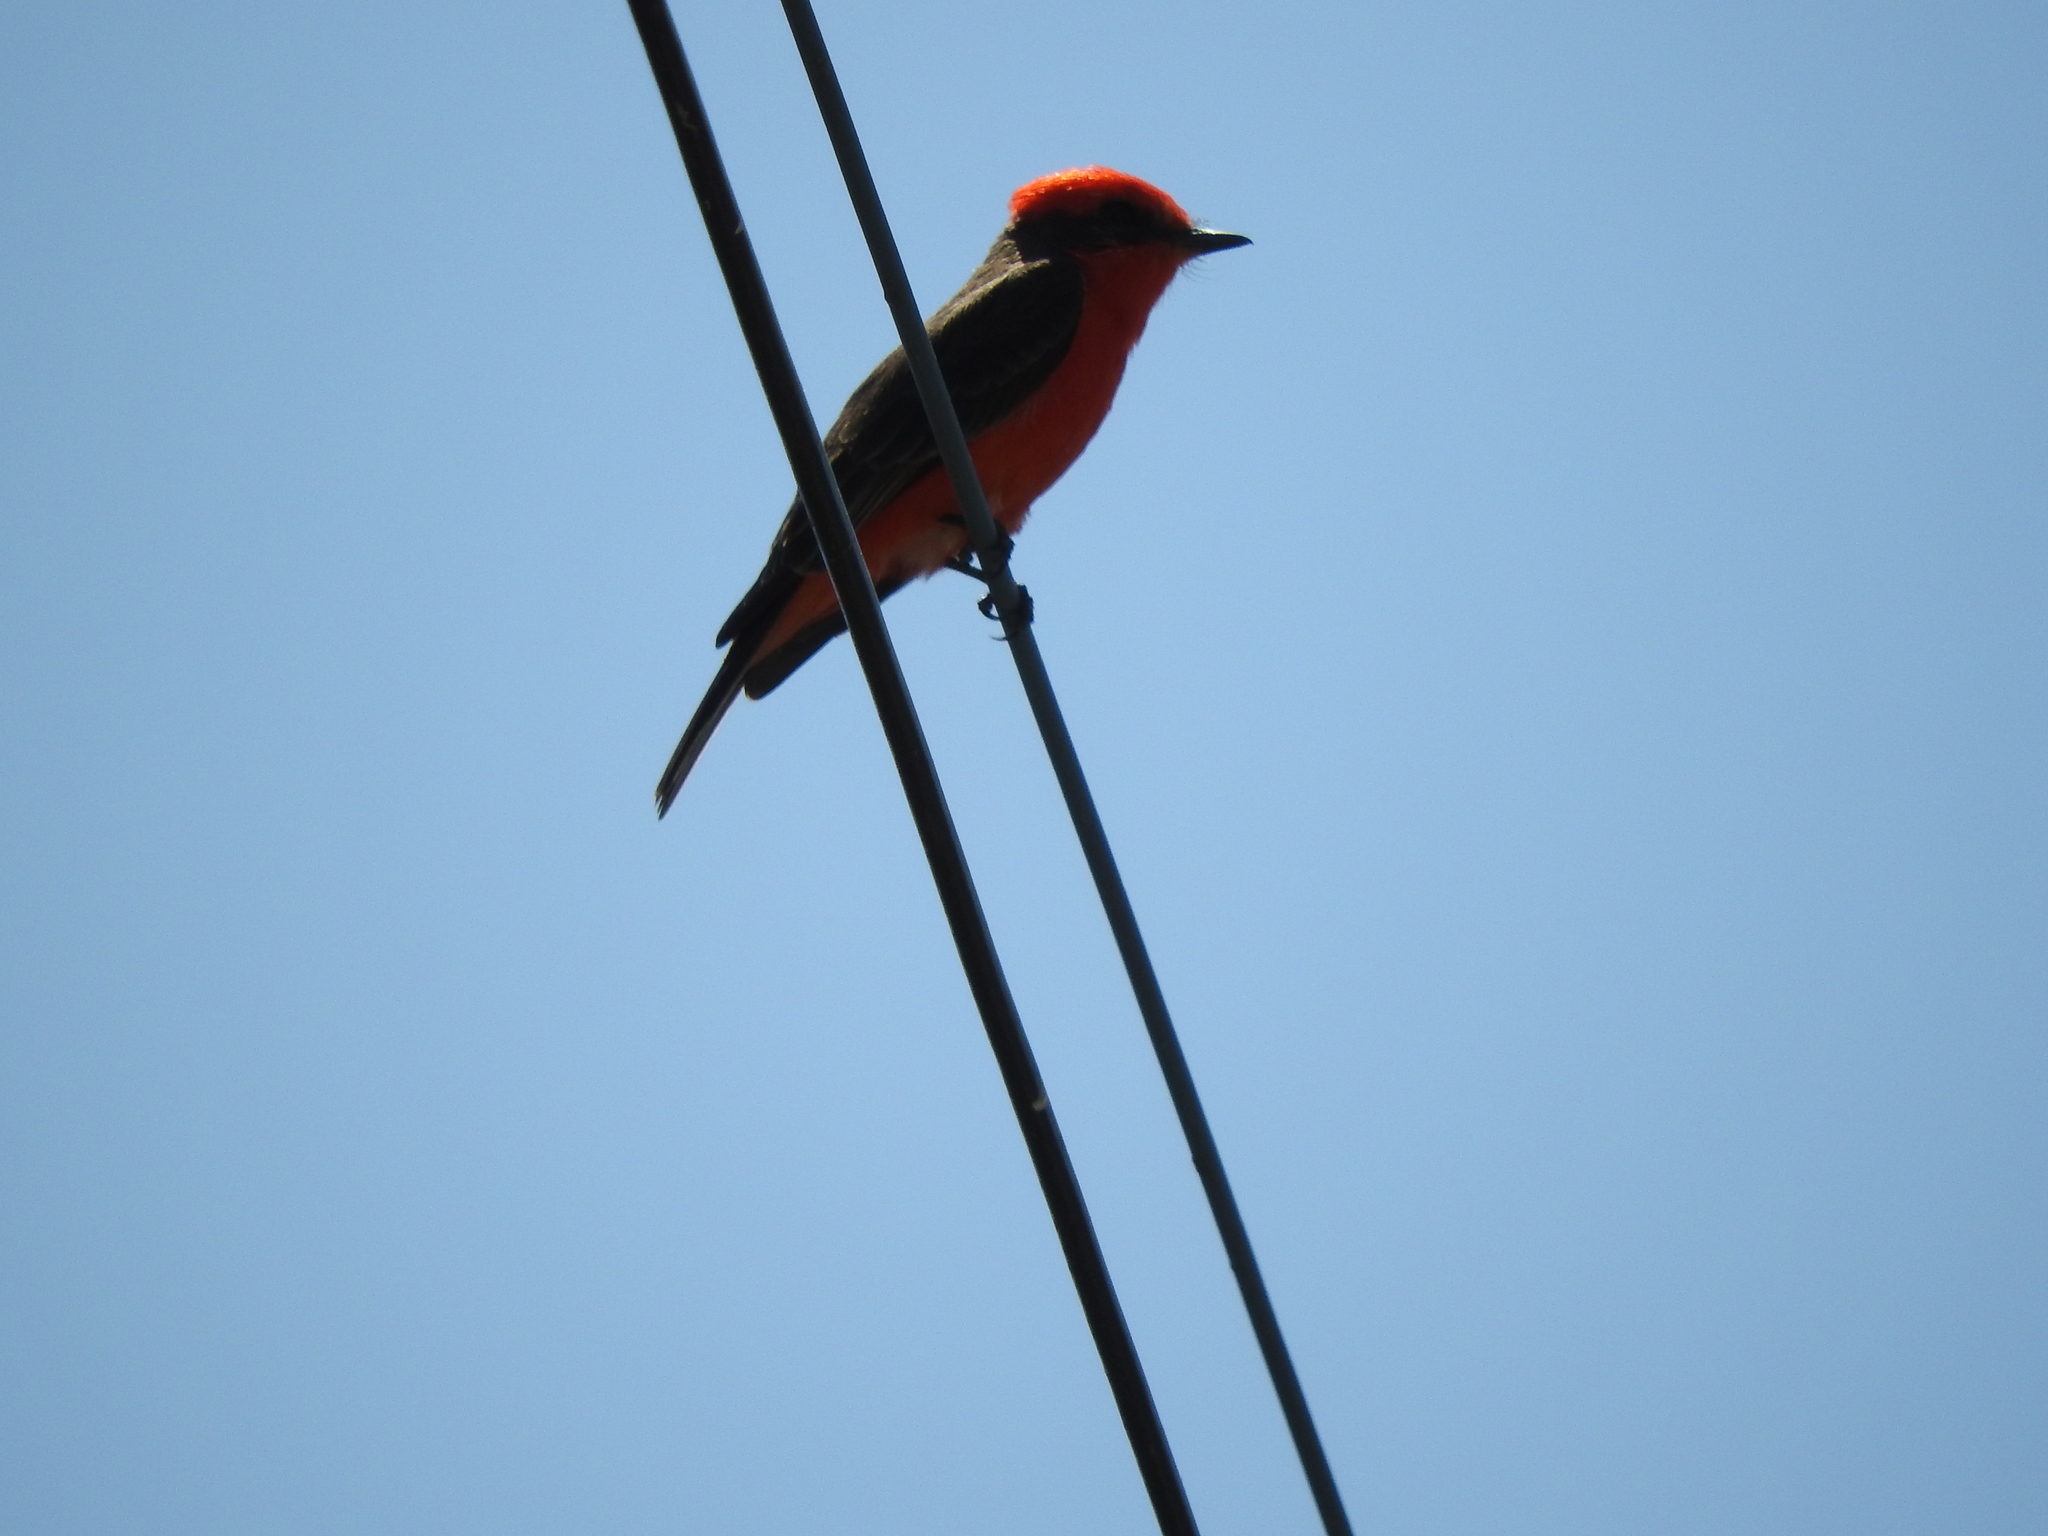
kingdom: Animalia
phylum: Chordata
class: Aves
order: Passeriformes
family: Tyrannidae
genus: Pyrocephalus
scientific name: Pyrocephalus rubinus
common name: Vermilion flycatcher
